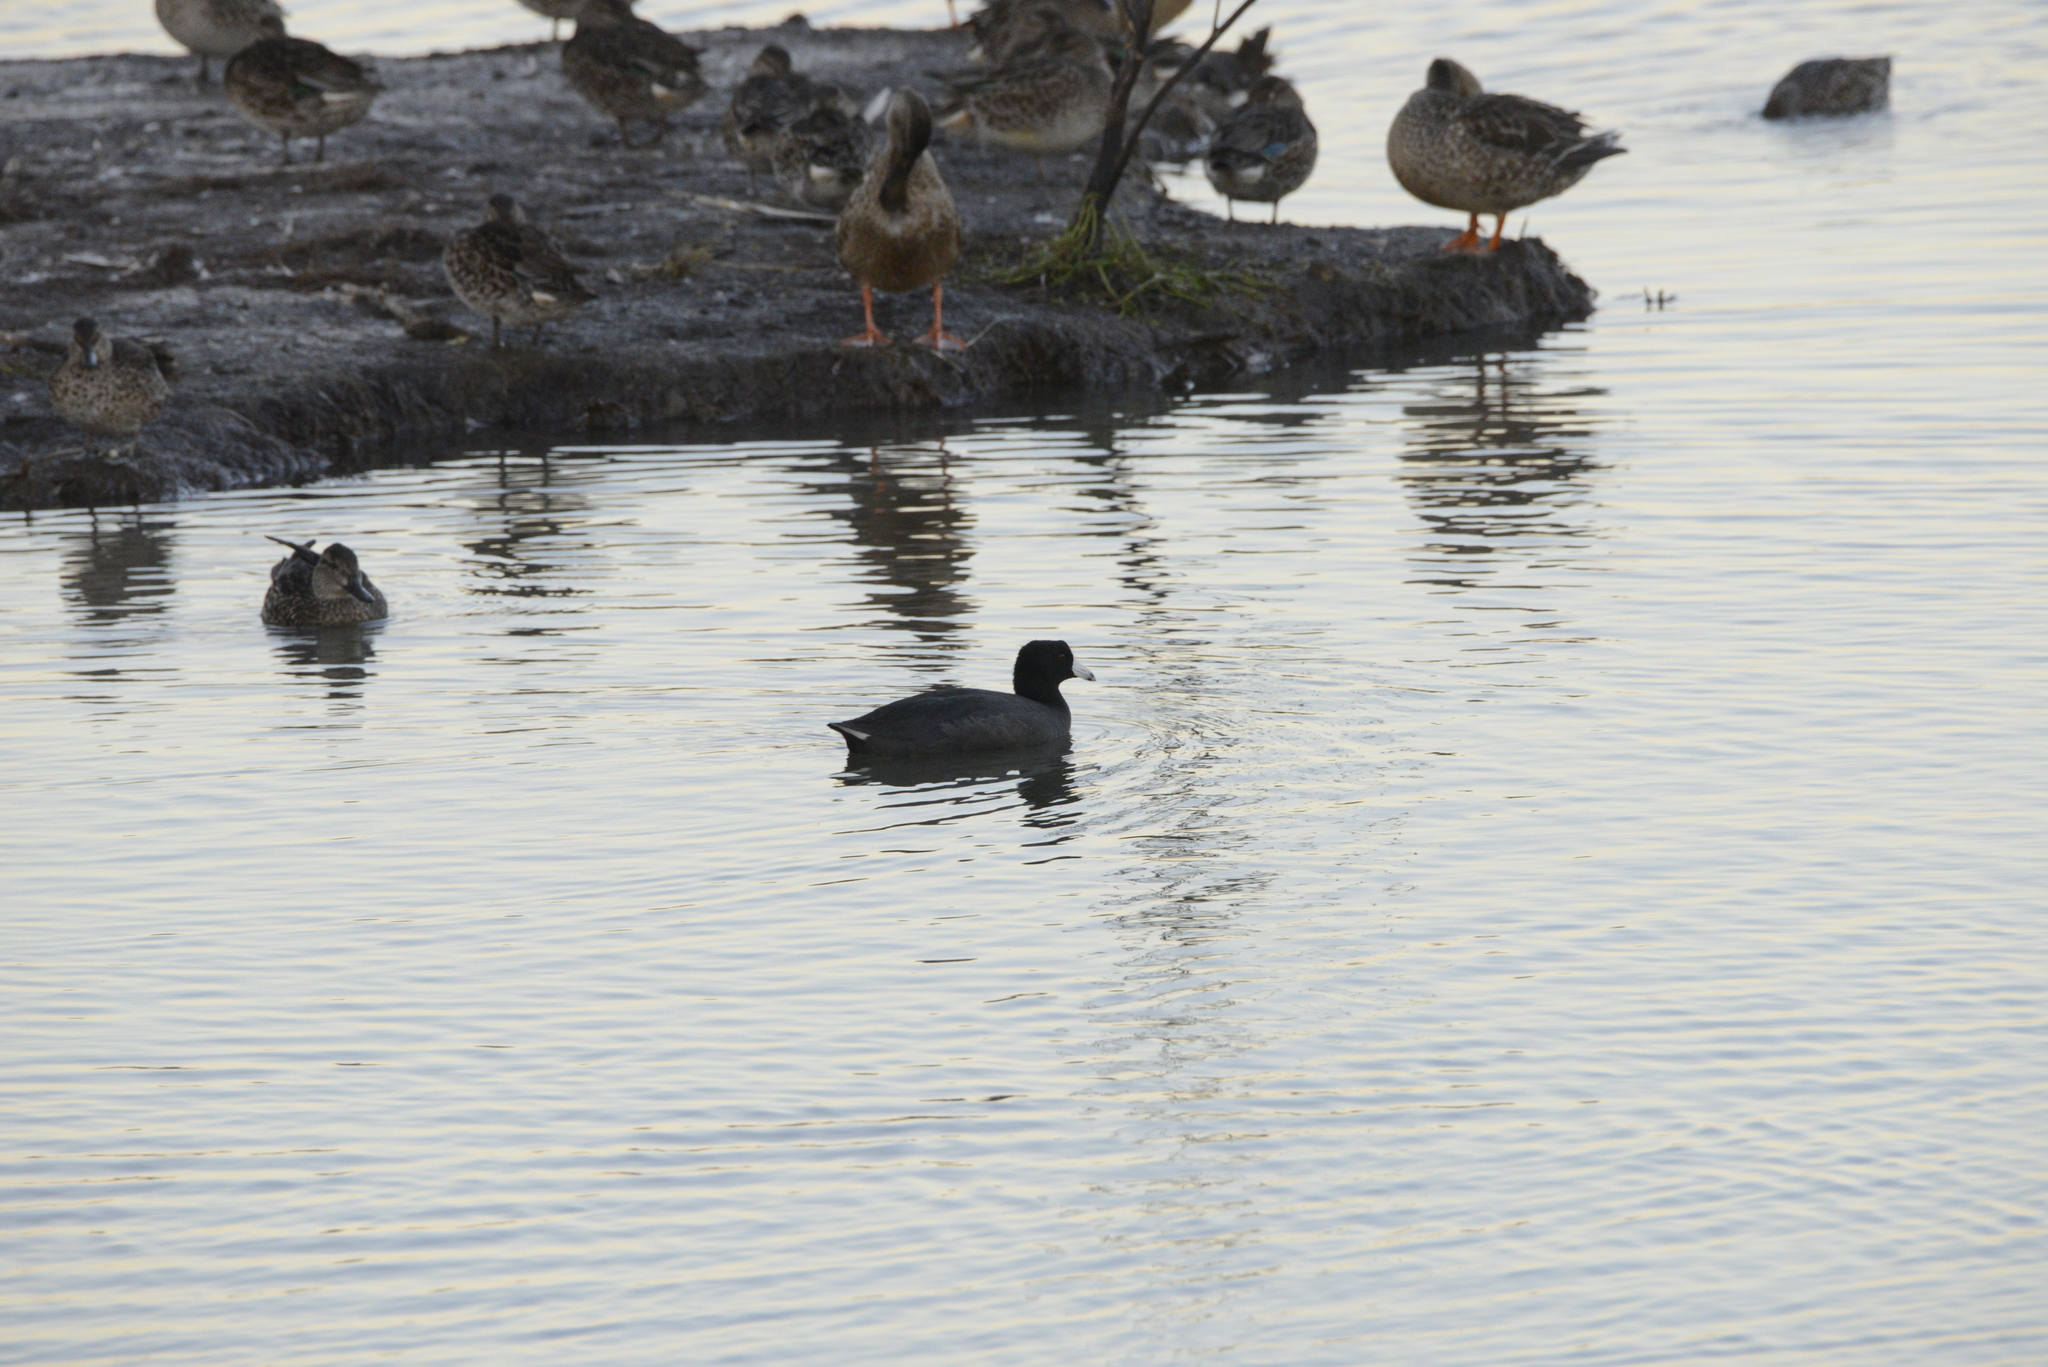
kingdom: Animalia
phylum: Chordata
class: Aves
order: Gruiformes
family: Rallidae
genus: Fulica
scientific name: Fulica americana
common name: American coot
